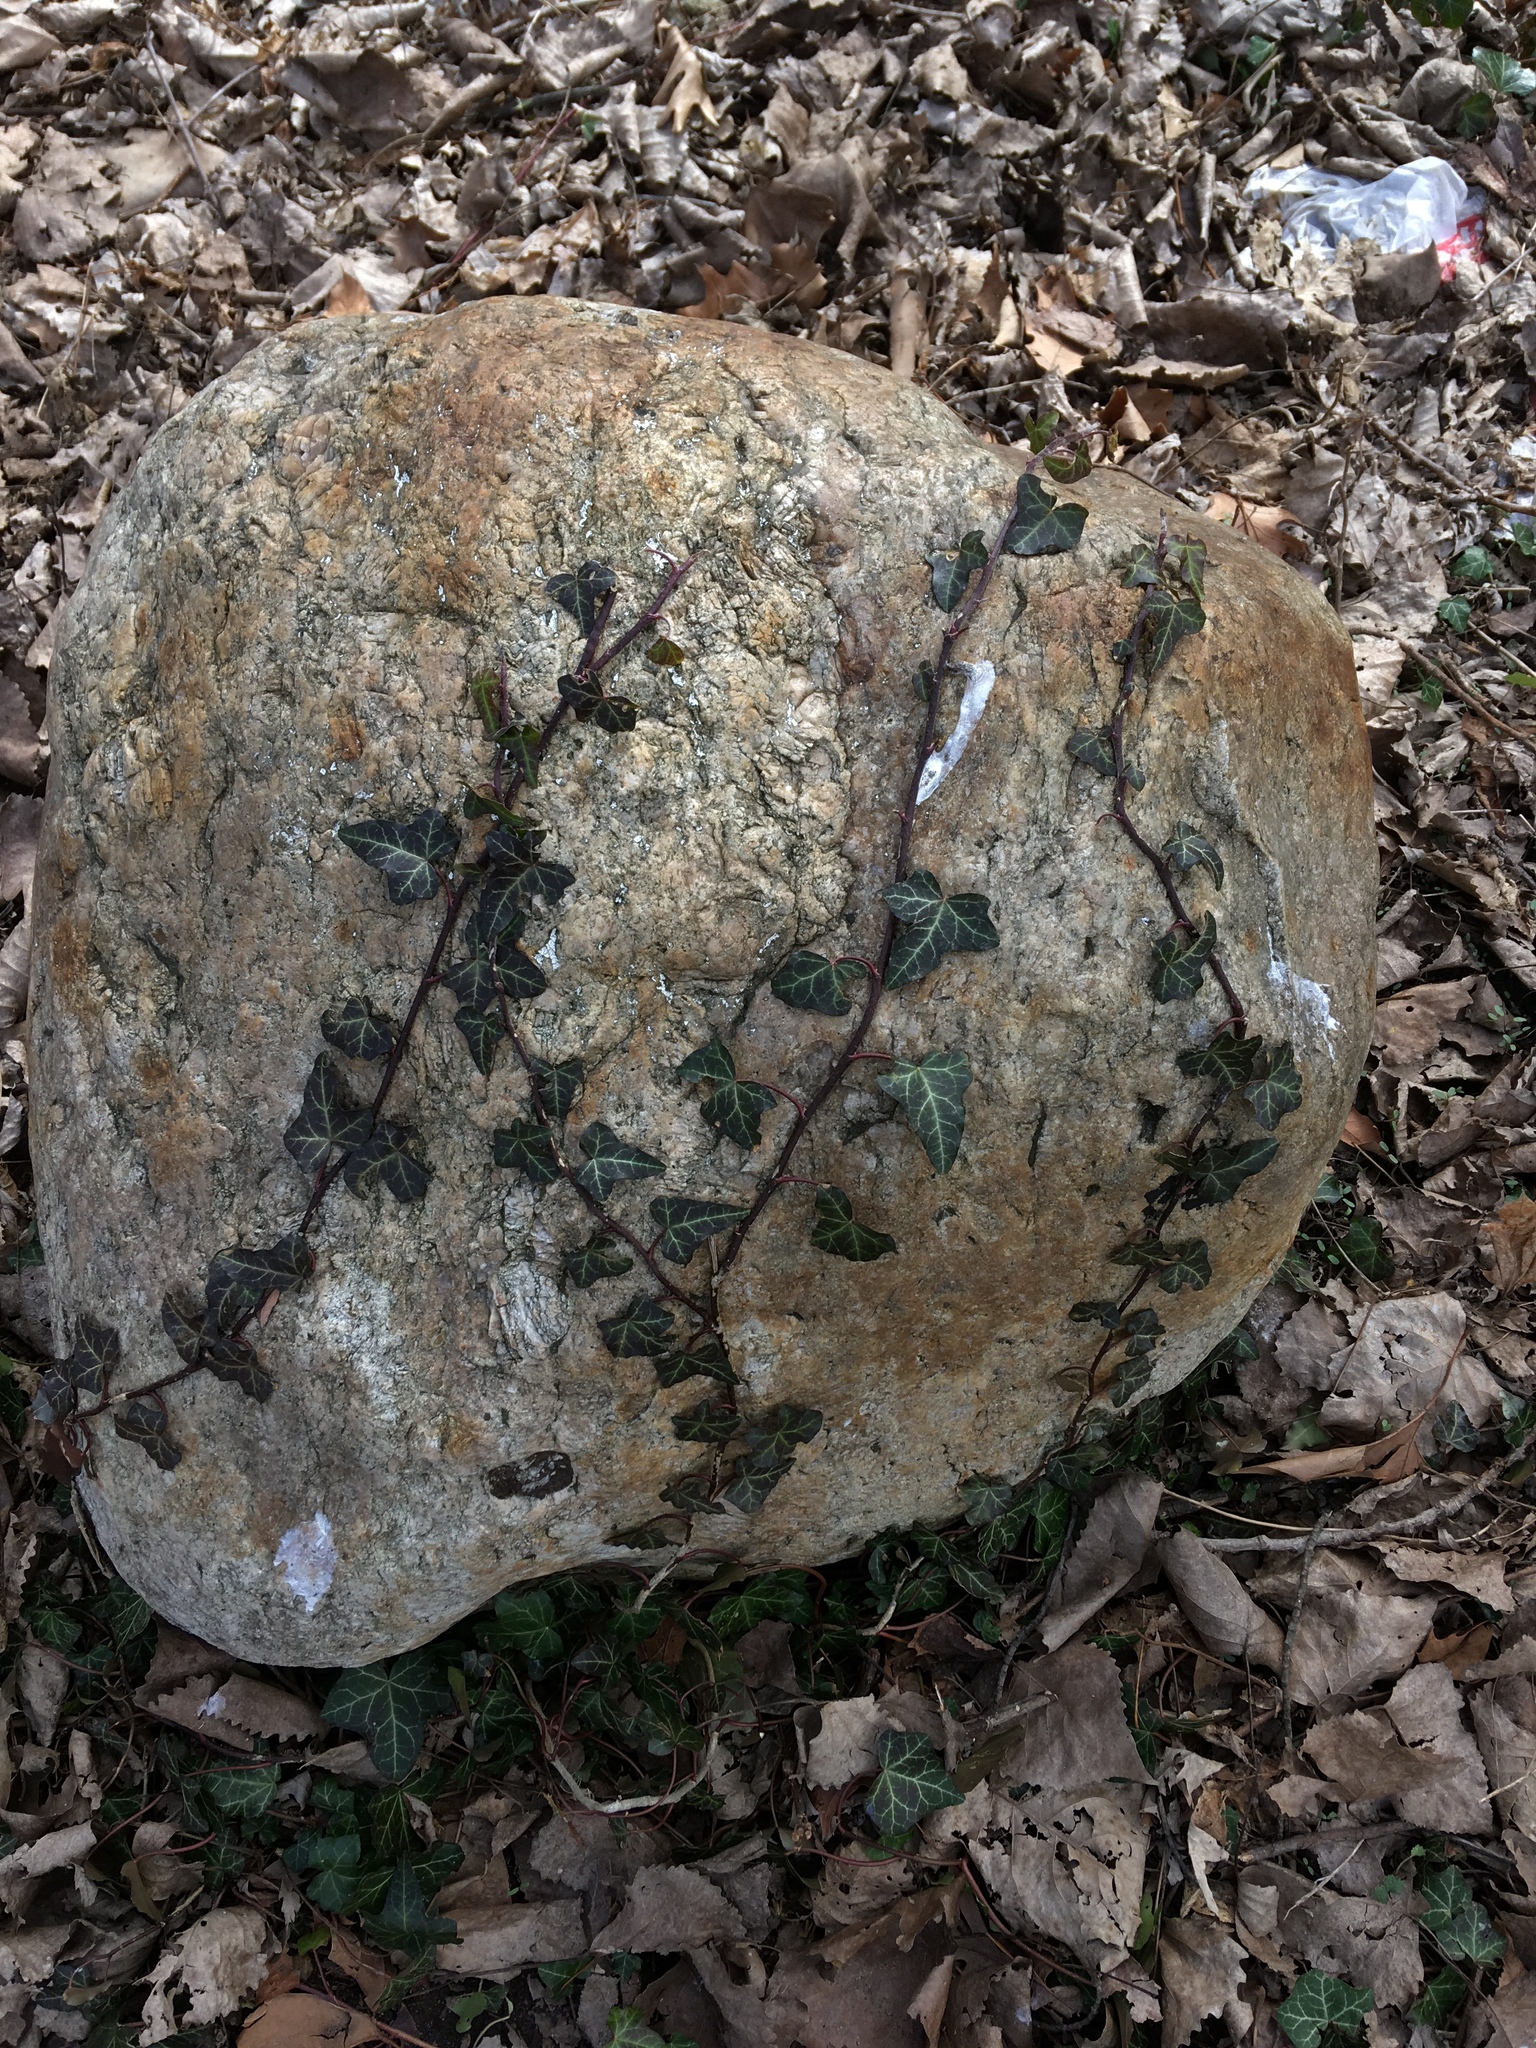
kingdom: Plantae
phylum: Tracheophyta
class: Magnoliopsida
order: Apiales
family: Araliaceae
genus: Hedera
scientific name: Hedera helix
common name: Ivy
